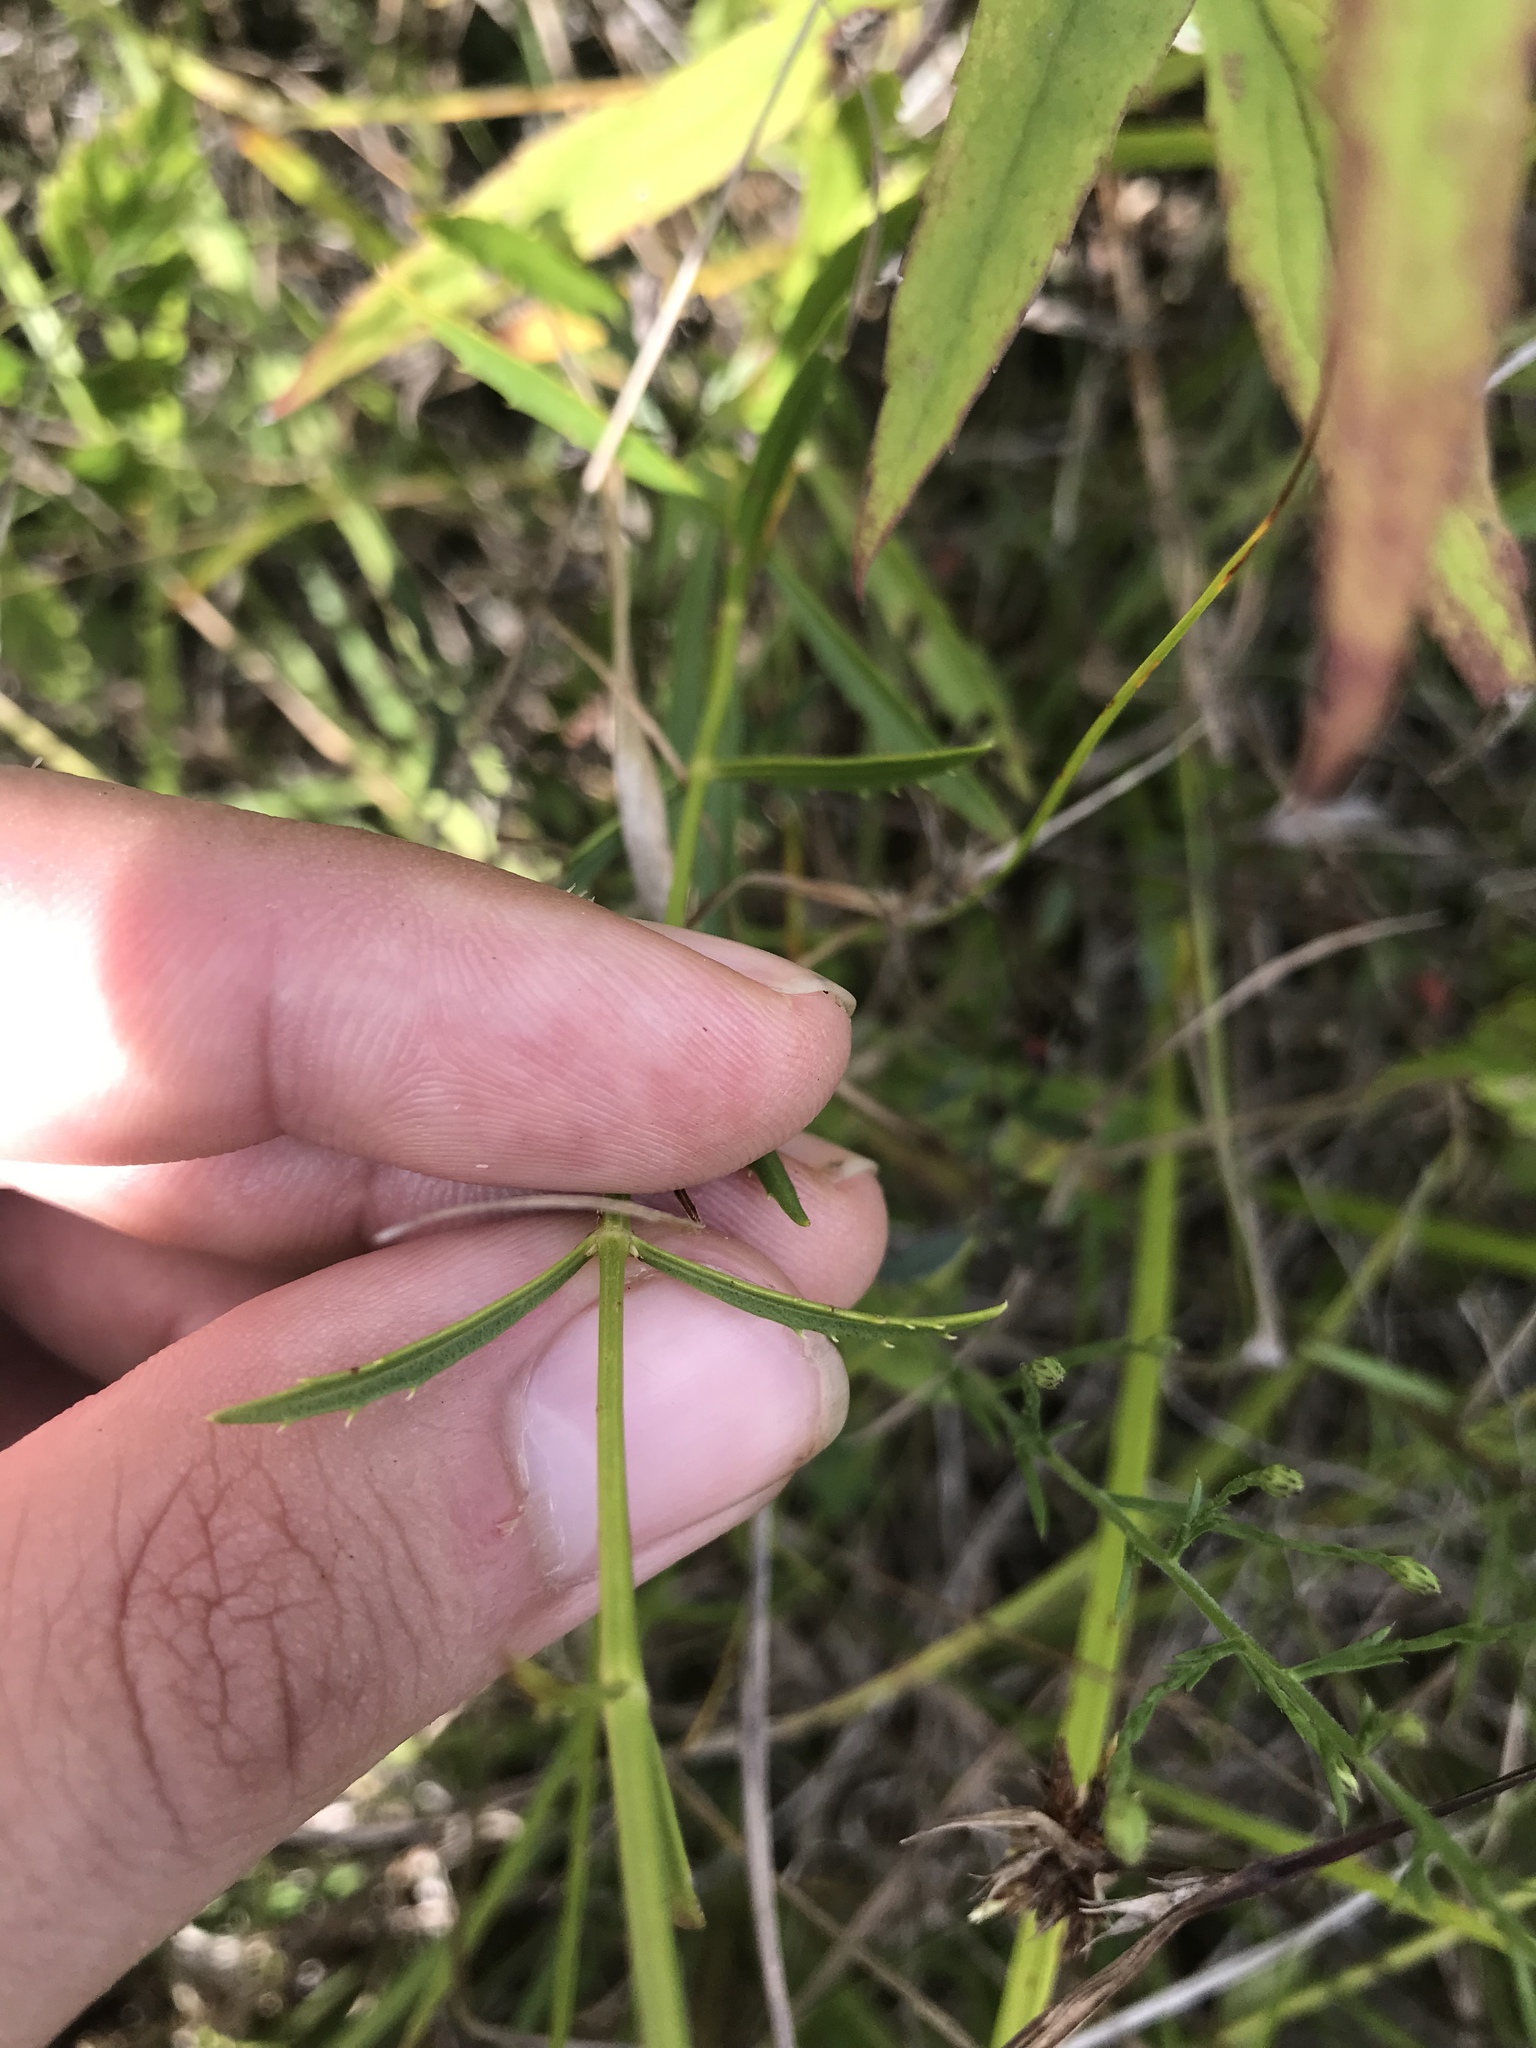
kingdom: Plantae
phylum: Tracheophyta
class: Magnoliopsida
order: Lamiales
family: Lamiaceae
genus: Physostegia
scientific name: Physostegia virginiana
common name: Obedient-plant
